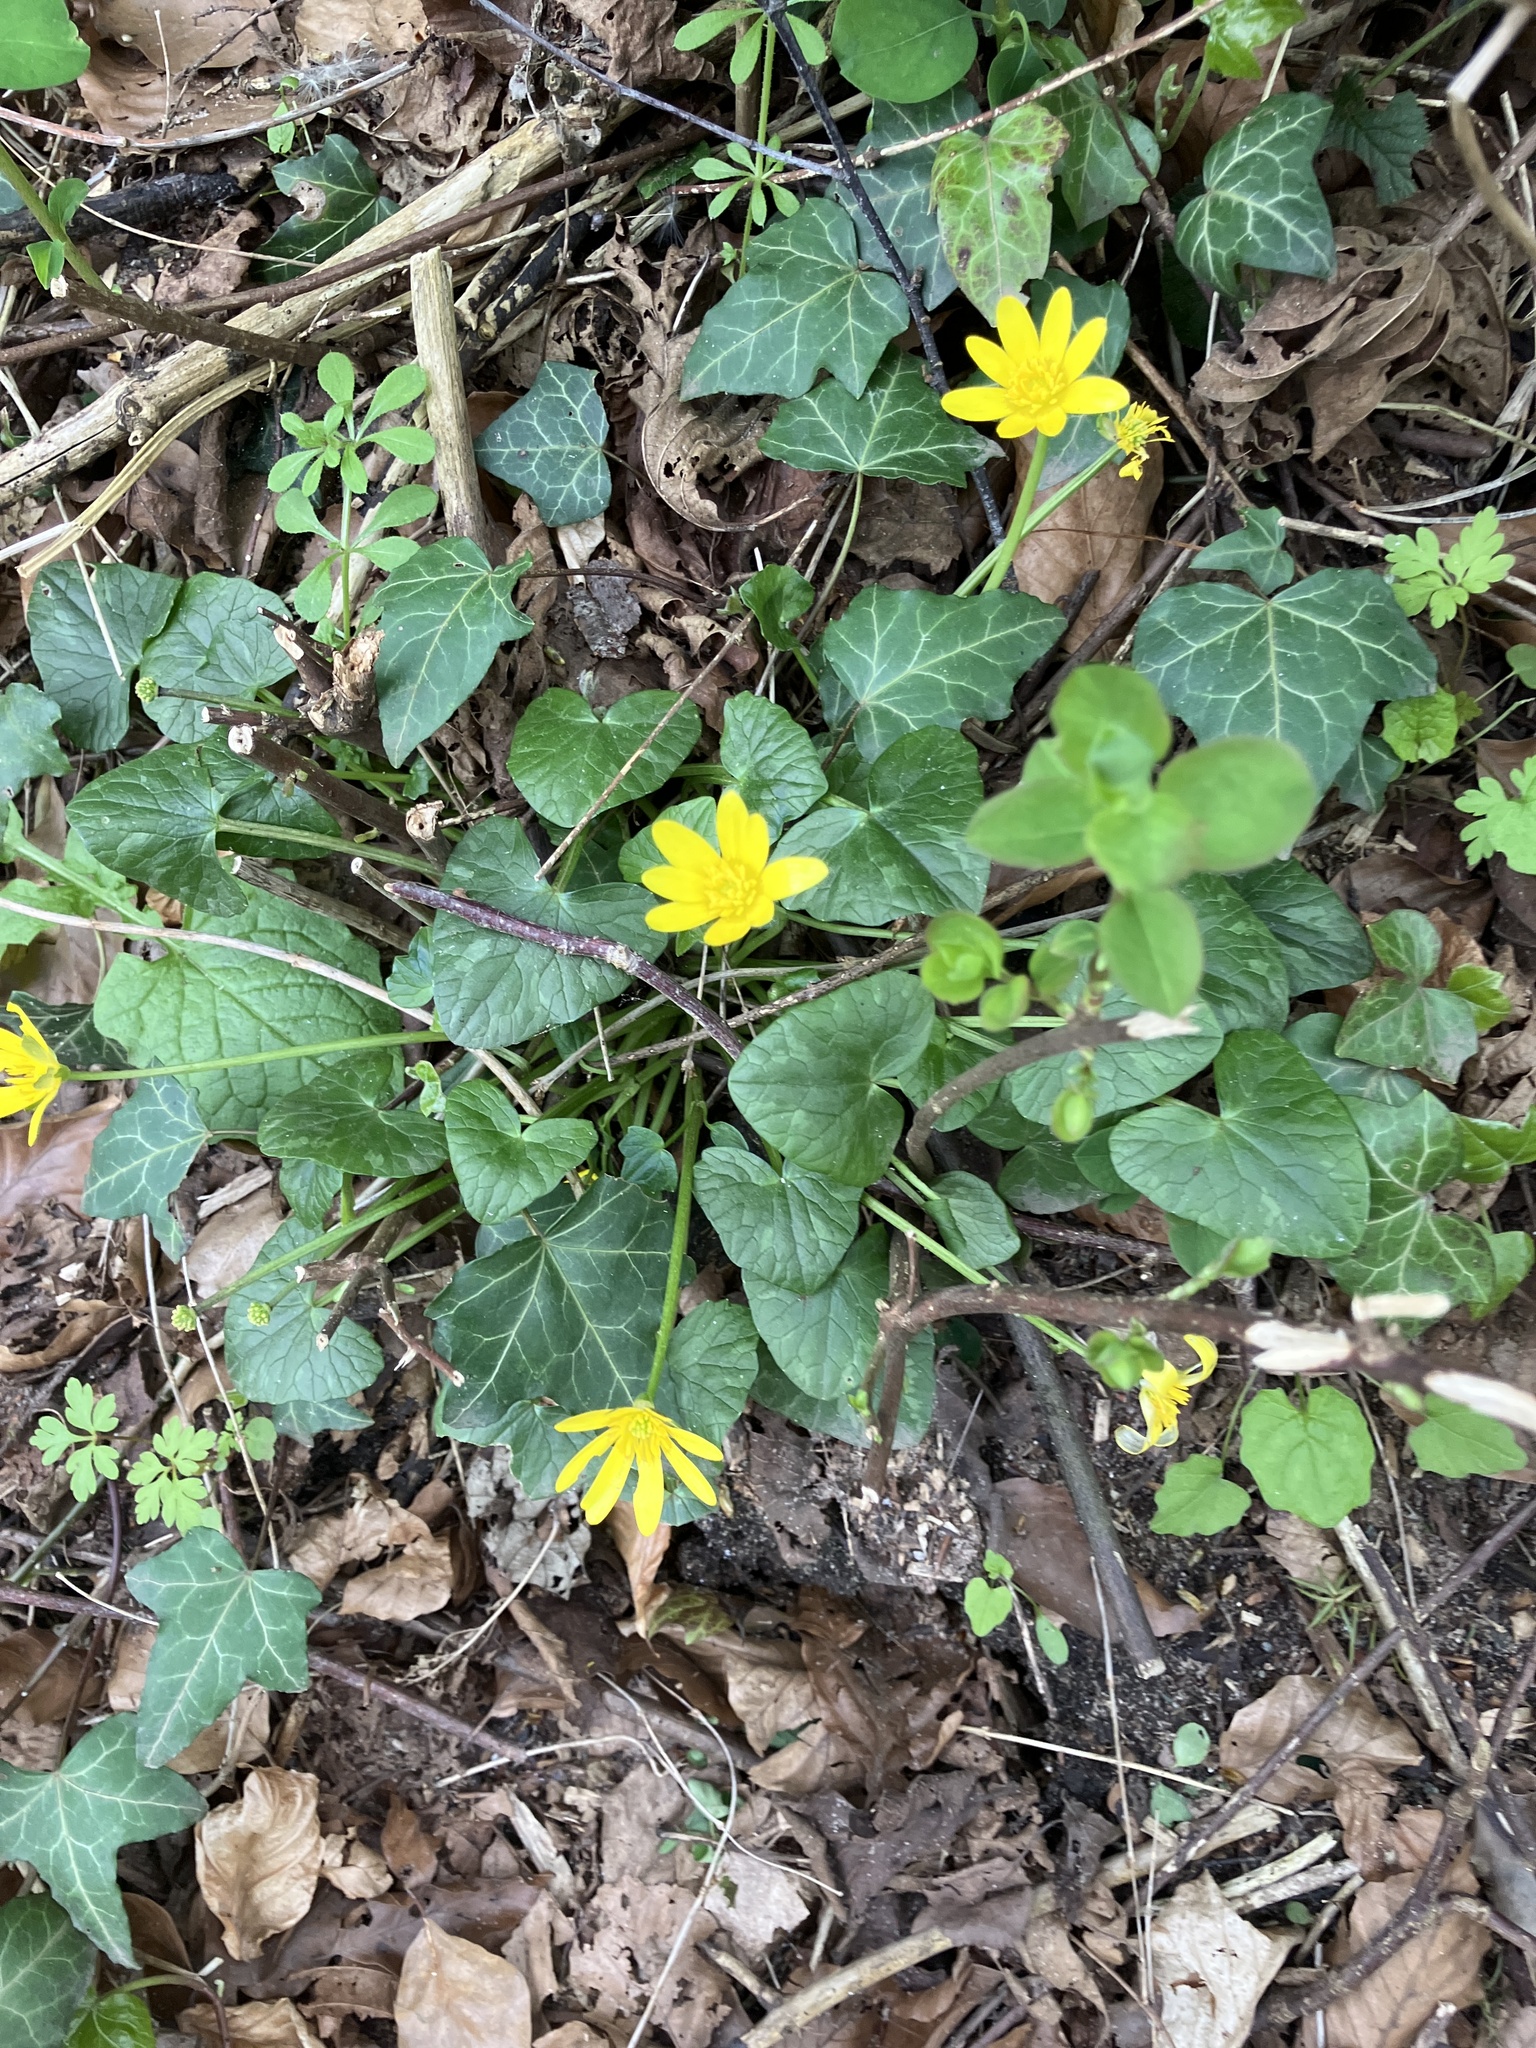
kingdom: Plantae
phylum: Tracheophyta
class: Magnoliopsida
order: Ranunculales
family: Ranunculaceae
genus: Ficaria
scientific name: Ficaria verna
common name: Lesser celandine
